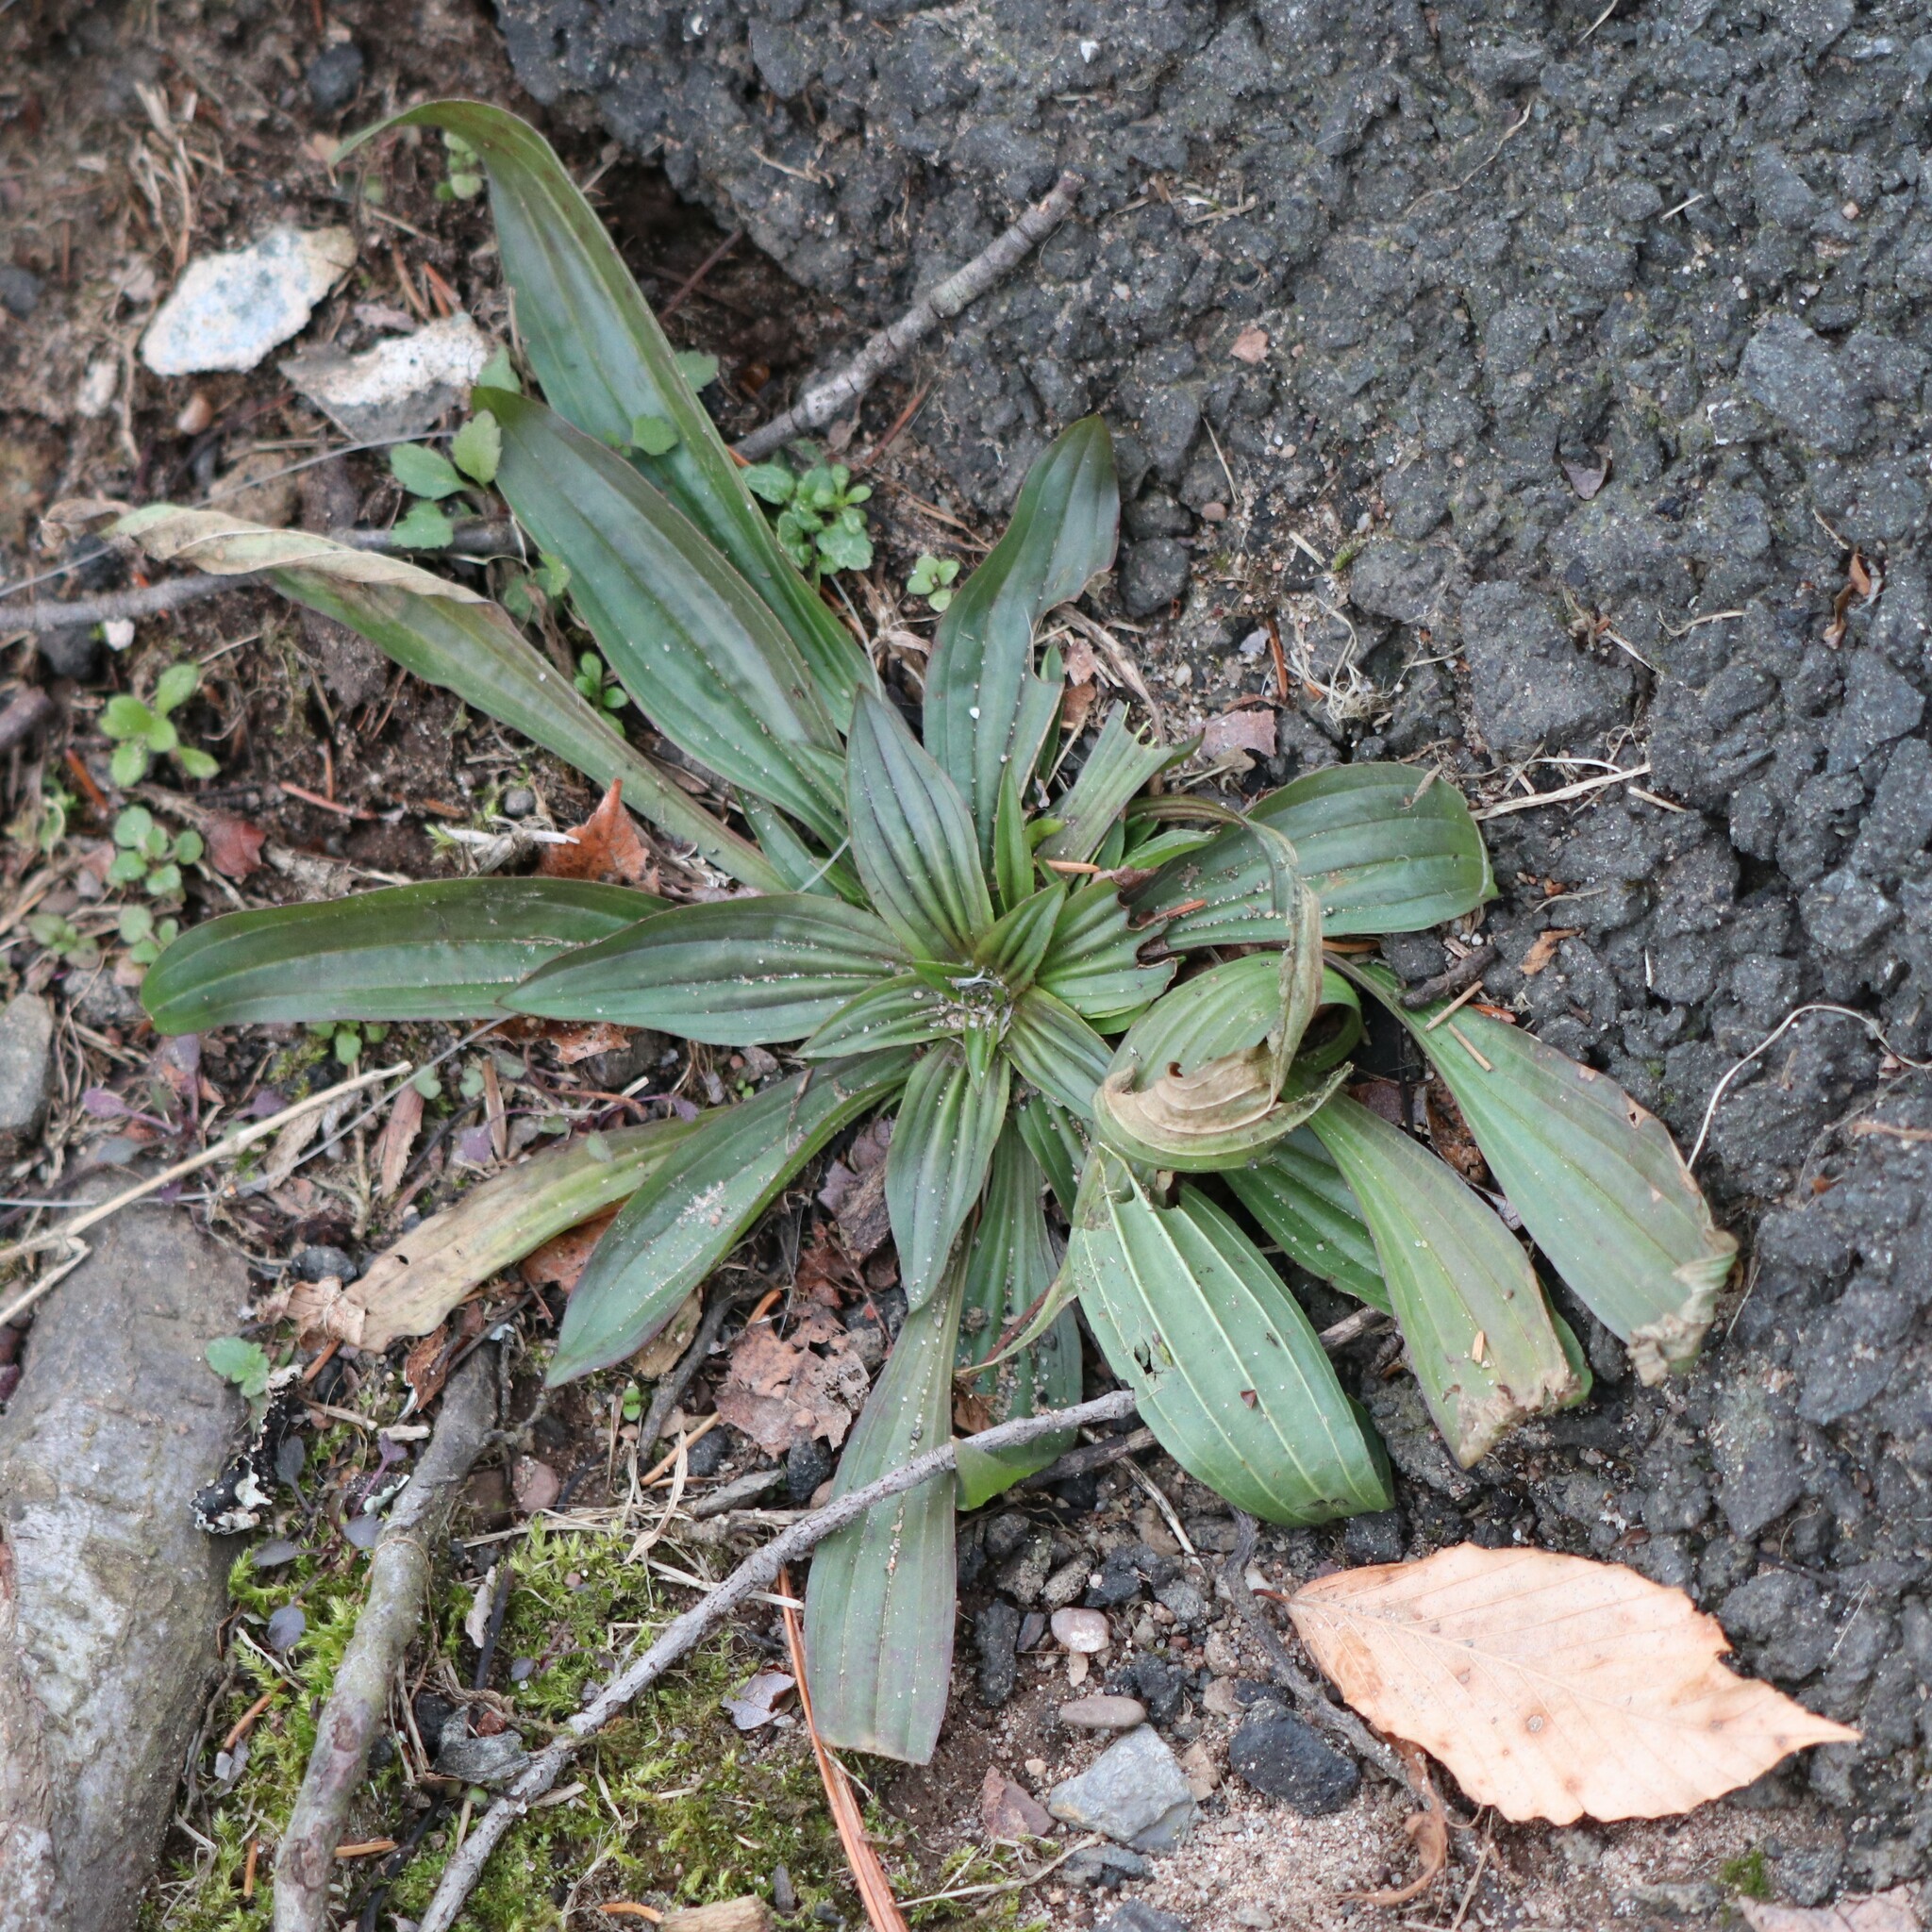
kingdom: Plantae
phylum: Tracheophyta
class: Magnoliopsida
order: Lamiales
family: Plantaginaceae
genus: Plantago
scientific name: Plantago lanceolata
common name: Ribwort plantain
